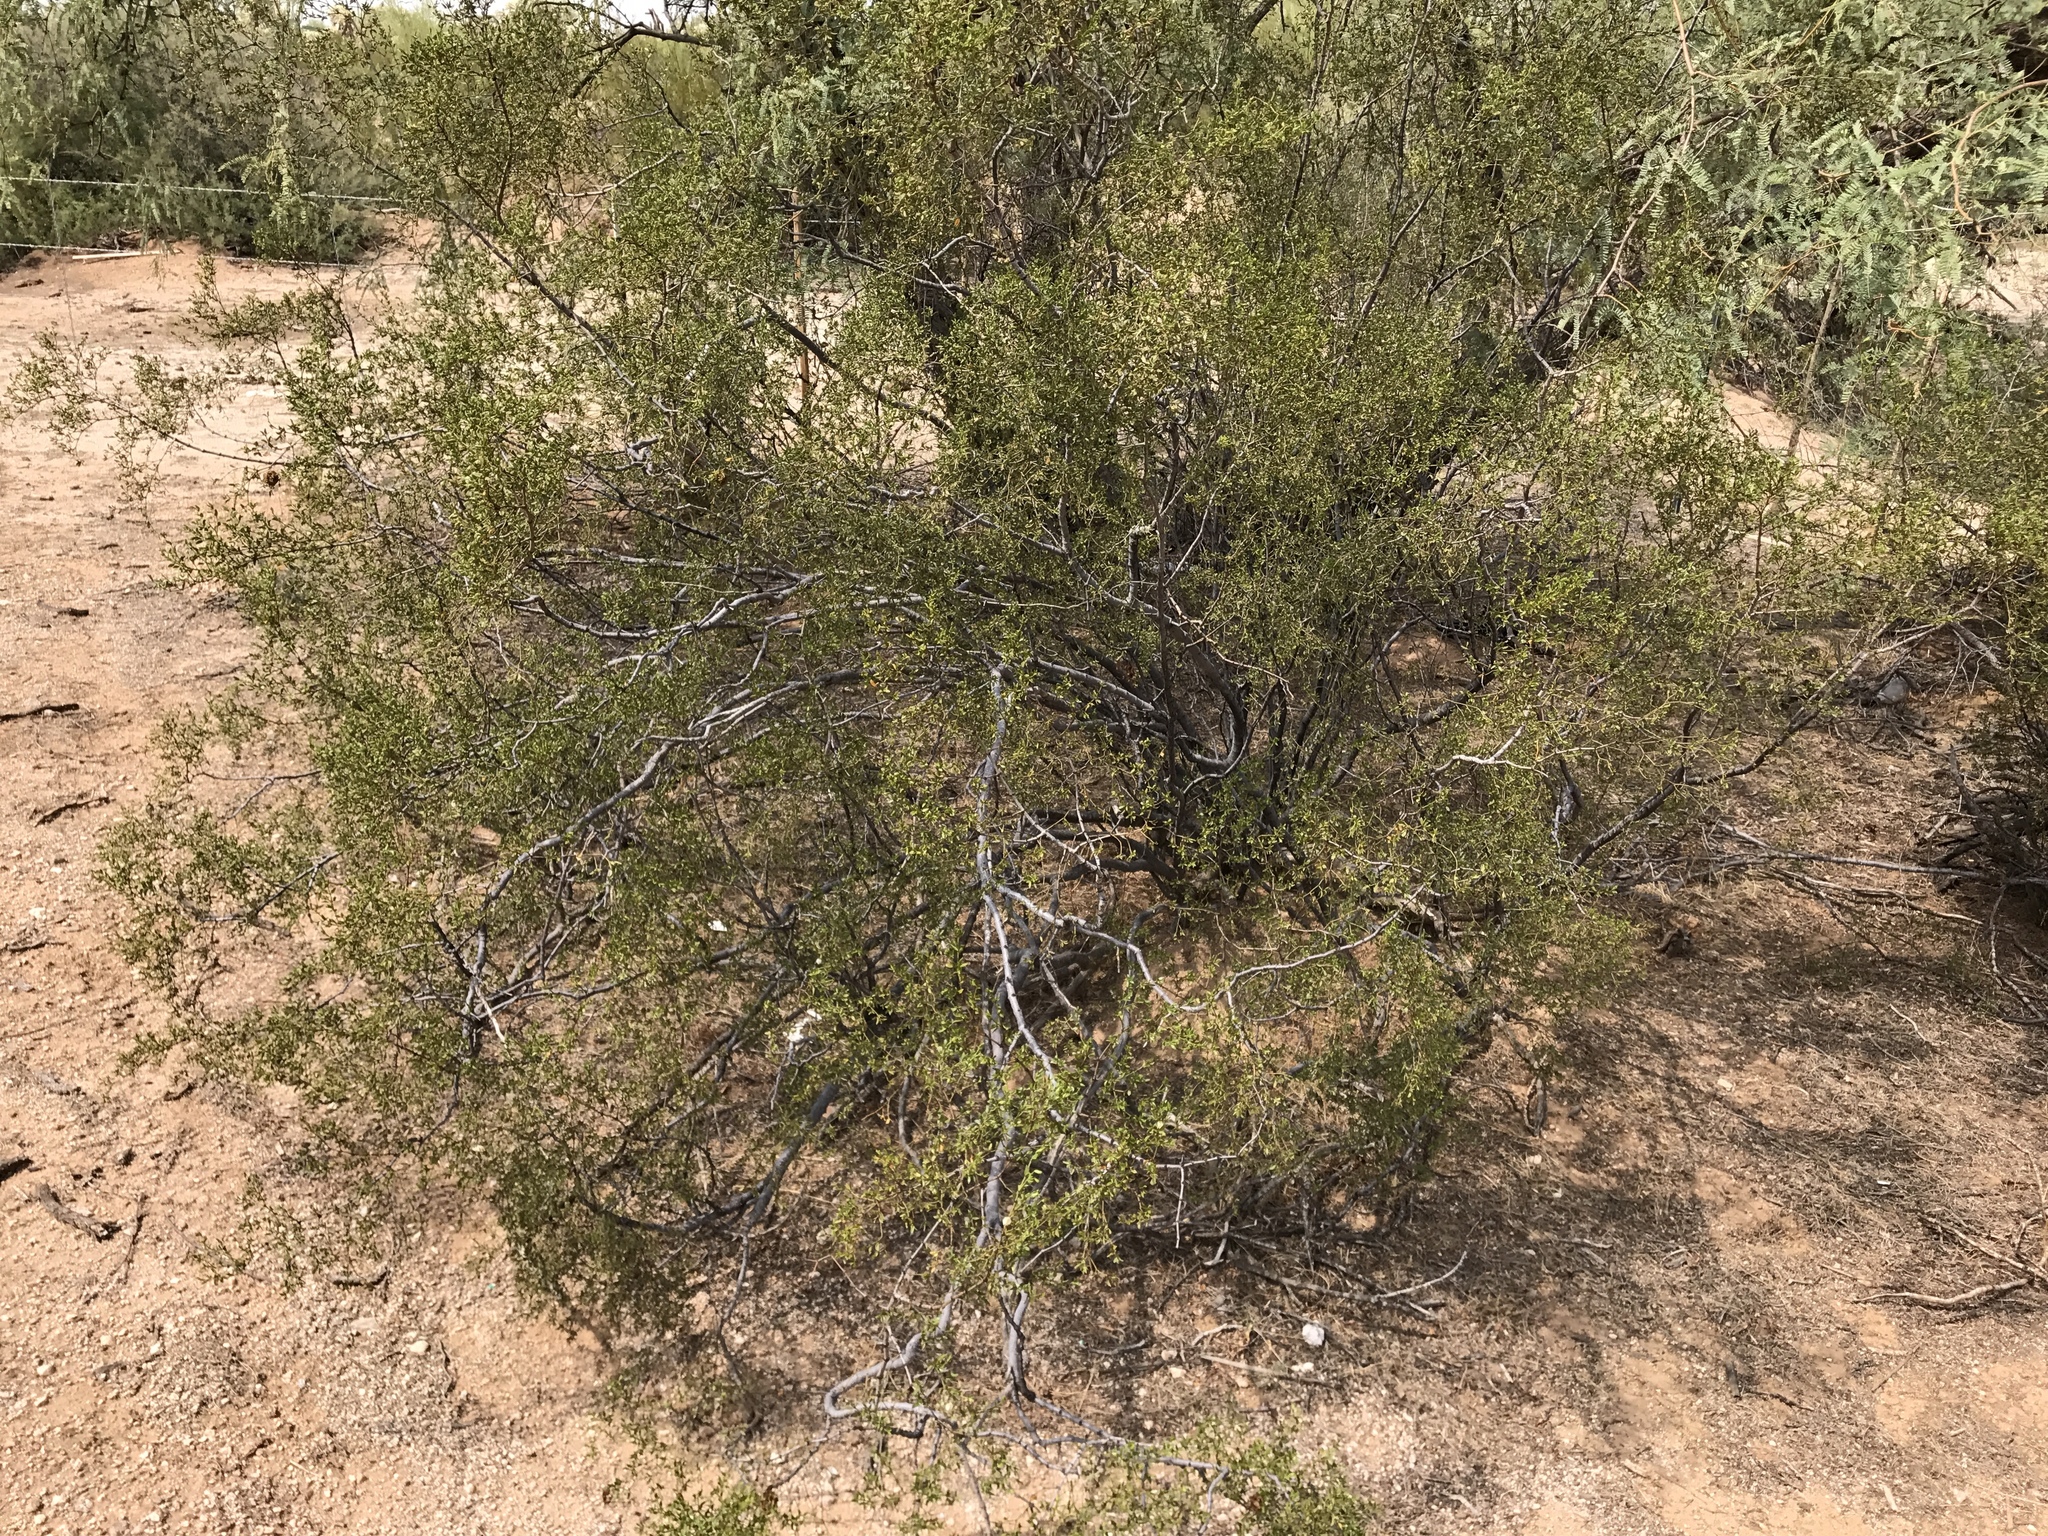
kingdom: Plantae
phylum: Tracheophyta
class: Magnoliopsida
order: Zygophyllales
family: Zygophyllaceae
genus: Larrea
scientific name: Larrea tridentata
